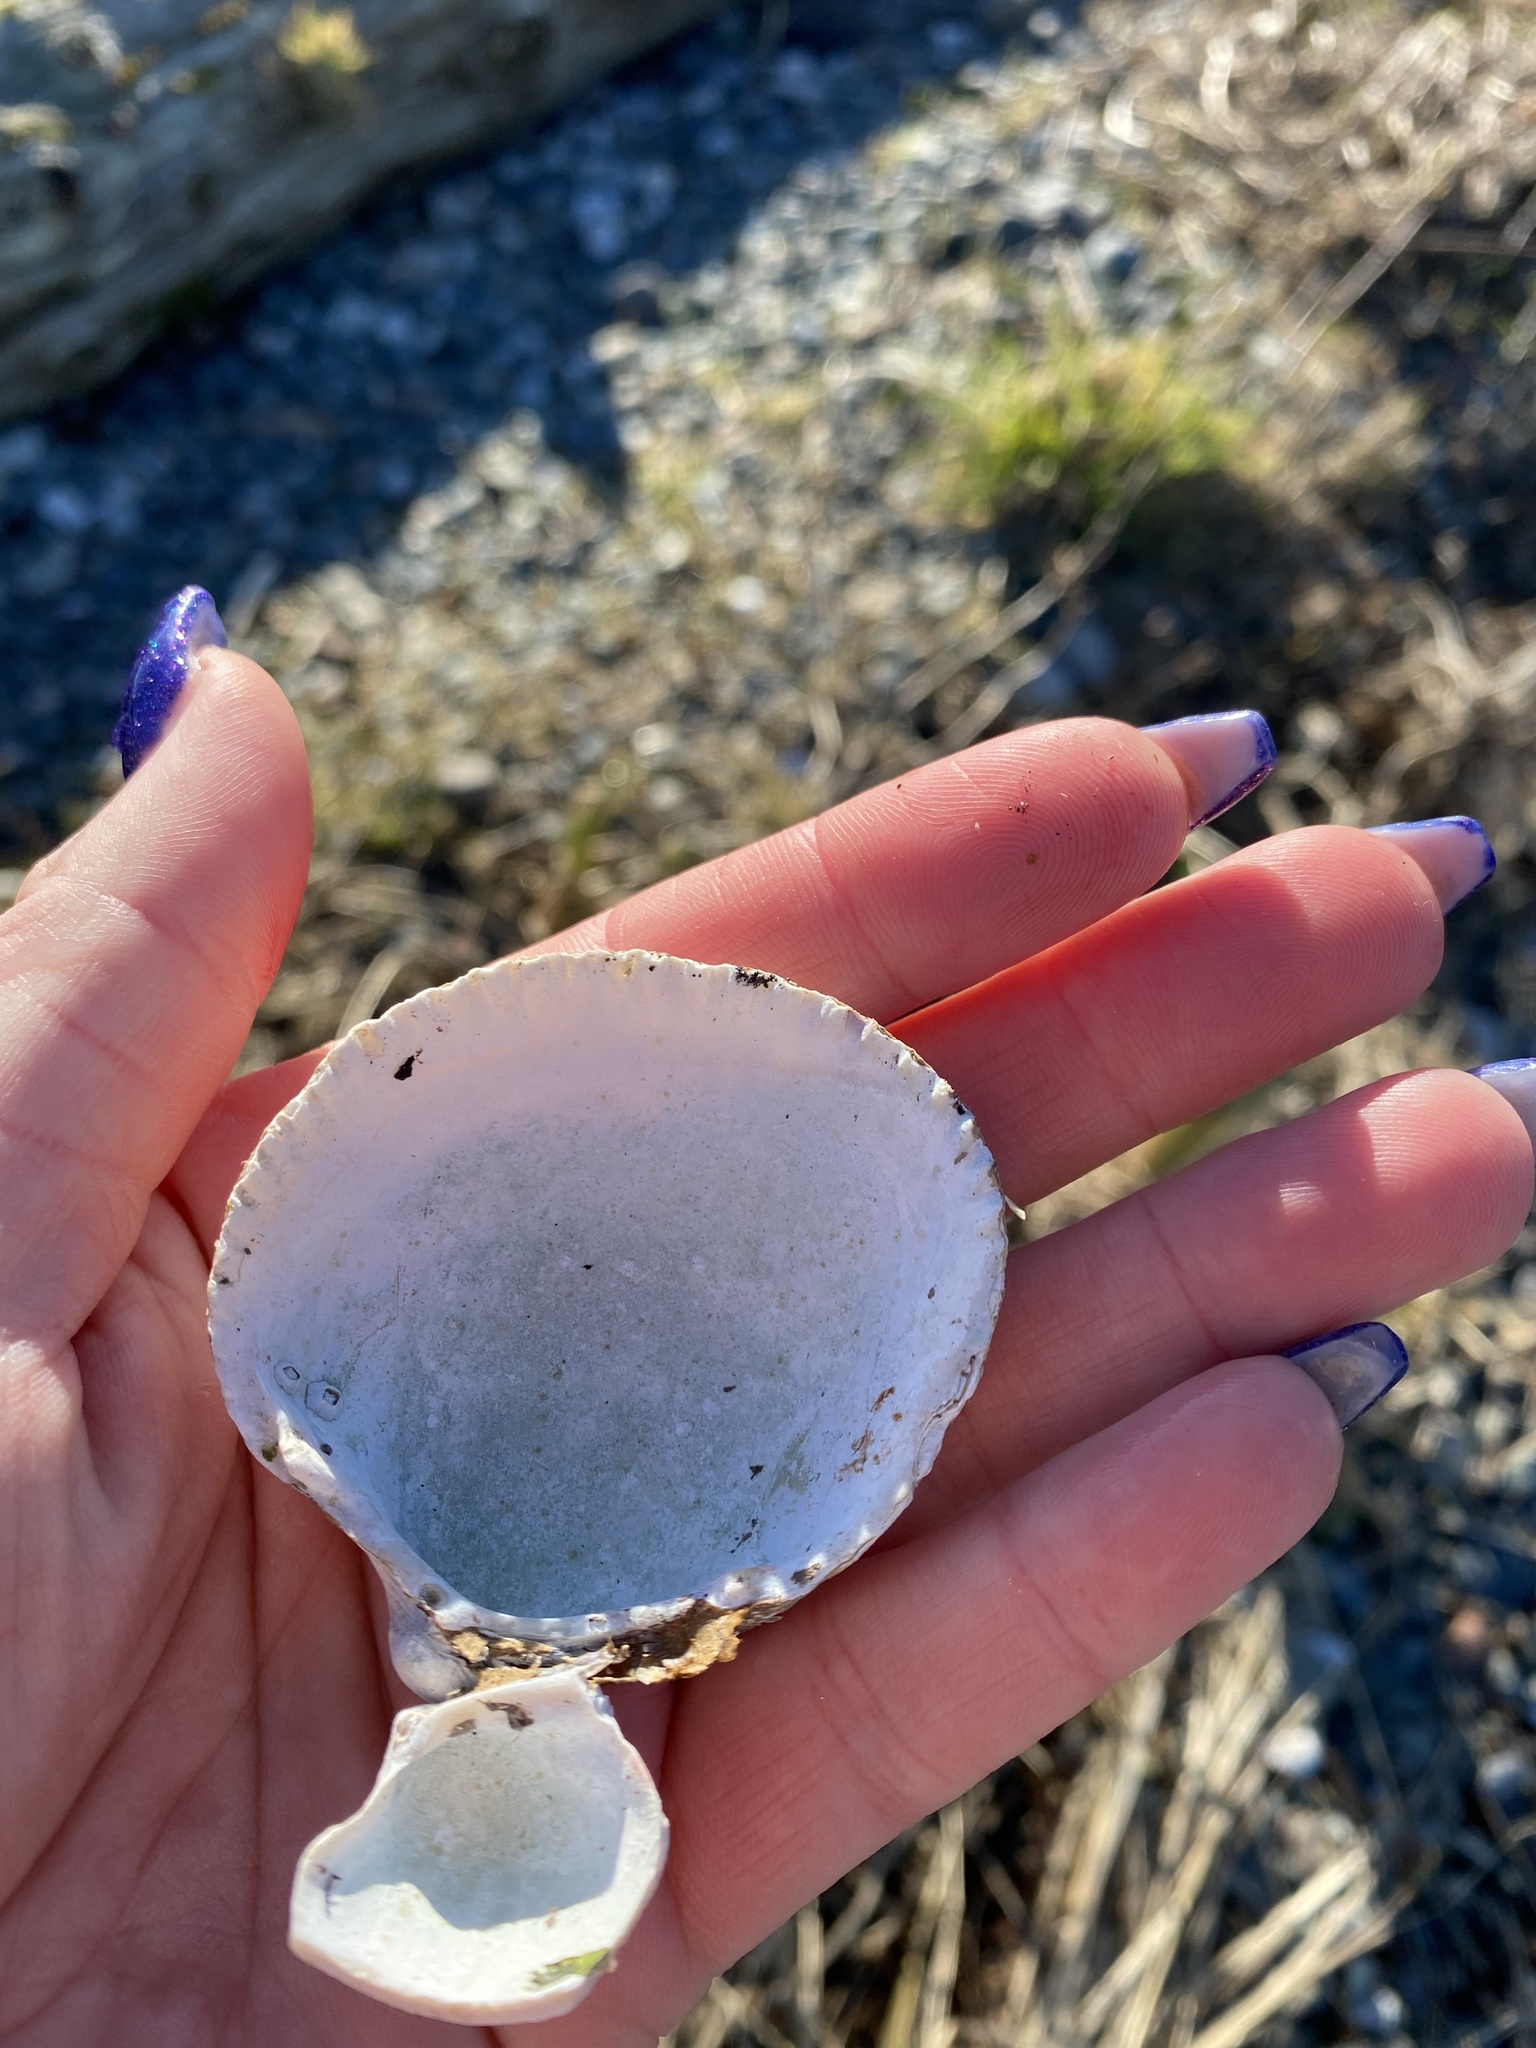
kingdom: Animalia
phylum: Mollusca
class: Bivalvia
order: Cardiida
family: Cardiidae
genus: Clinocardium
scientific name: Clinocardium nuttallii
